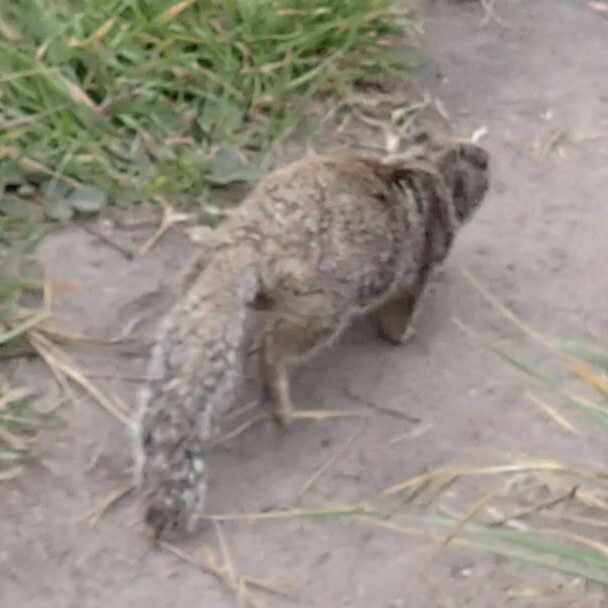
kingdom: Animalia
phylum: Chordata
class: Mammalia
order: Rodentia
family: Sciuridae
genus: Otospermophilus
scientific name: Otospermophilus beecheyi
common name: California ground squirrel
